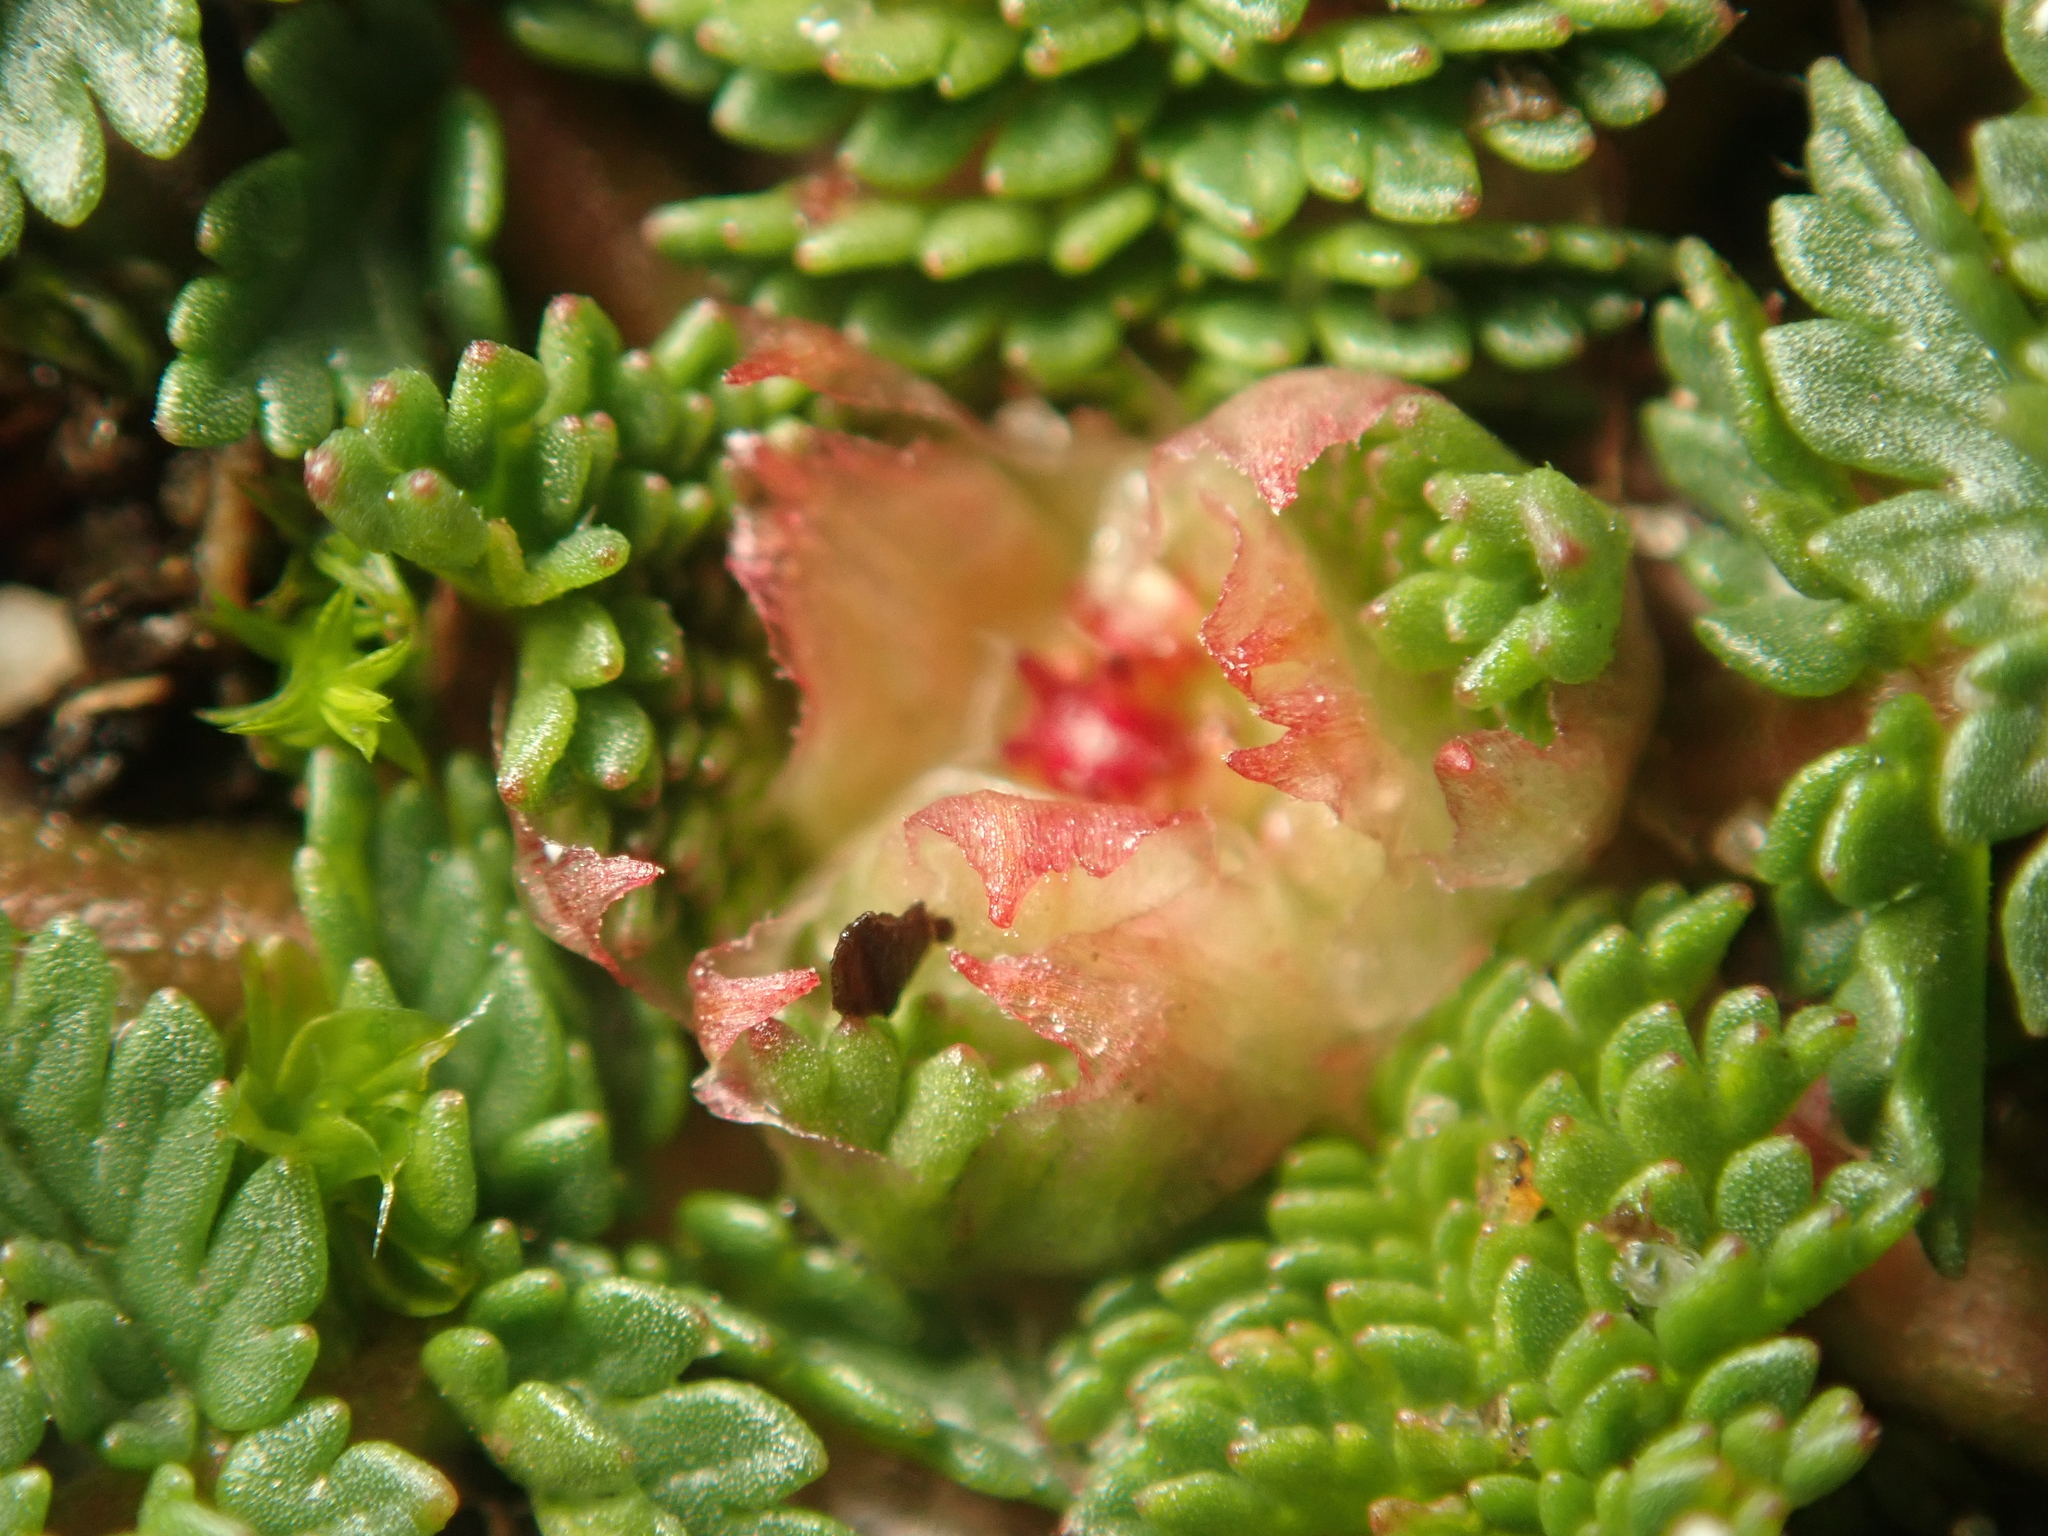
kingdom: Plantae
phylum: Tracheophyta
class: Magnoliopsida
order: Geraniales
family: Geraniaceae
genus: Erodium
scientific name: Erodium cicutarium
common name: Common stork's-bill
